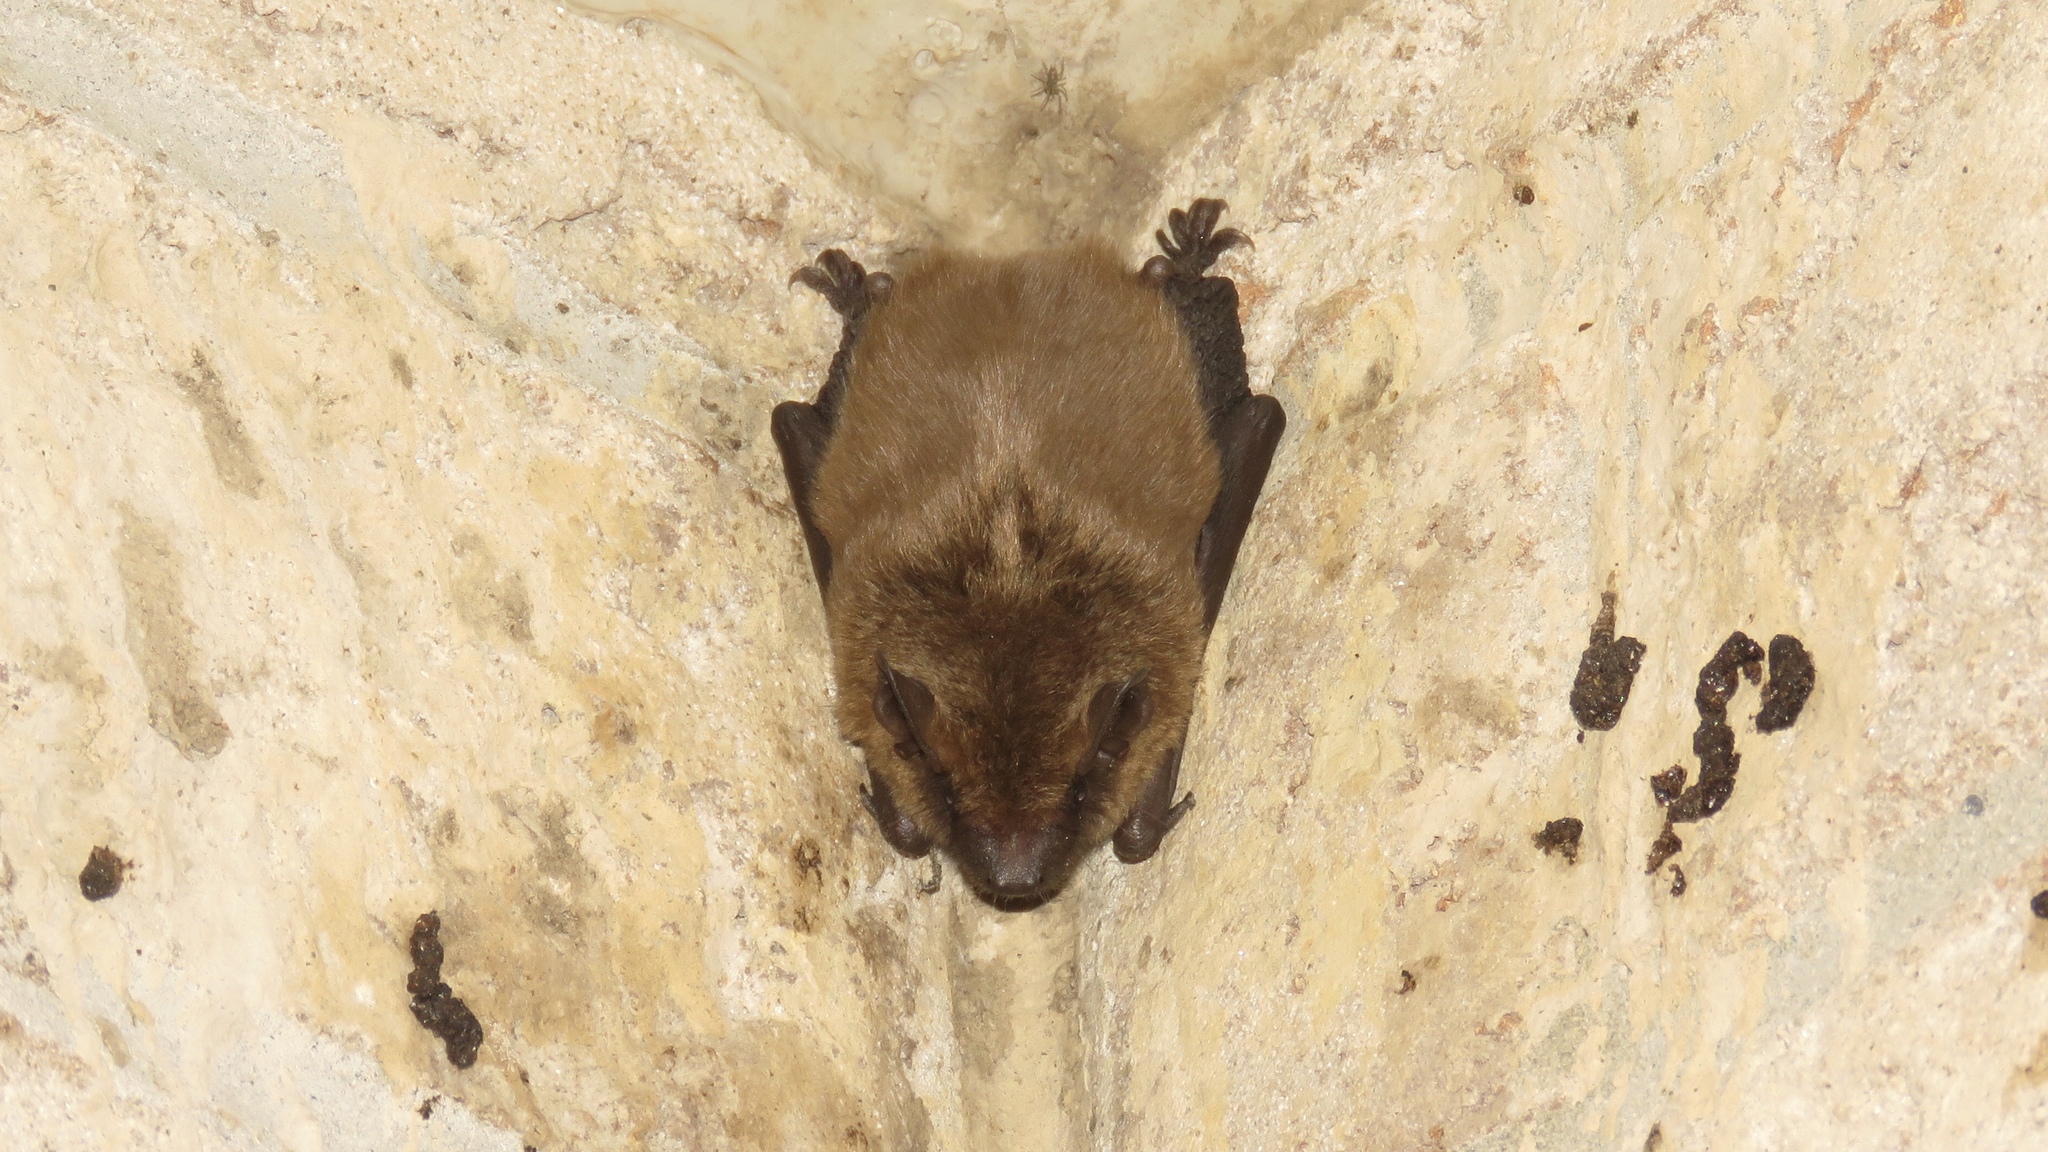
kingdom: Animalia
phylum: Chordata
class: Mammalia
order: Chiroptera
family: Vespertilionidae
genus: Eptesicus
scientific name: Eptesicus fuscus
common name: Big brown bat
